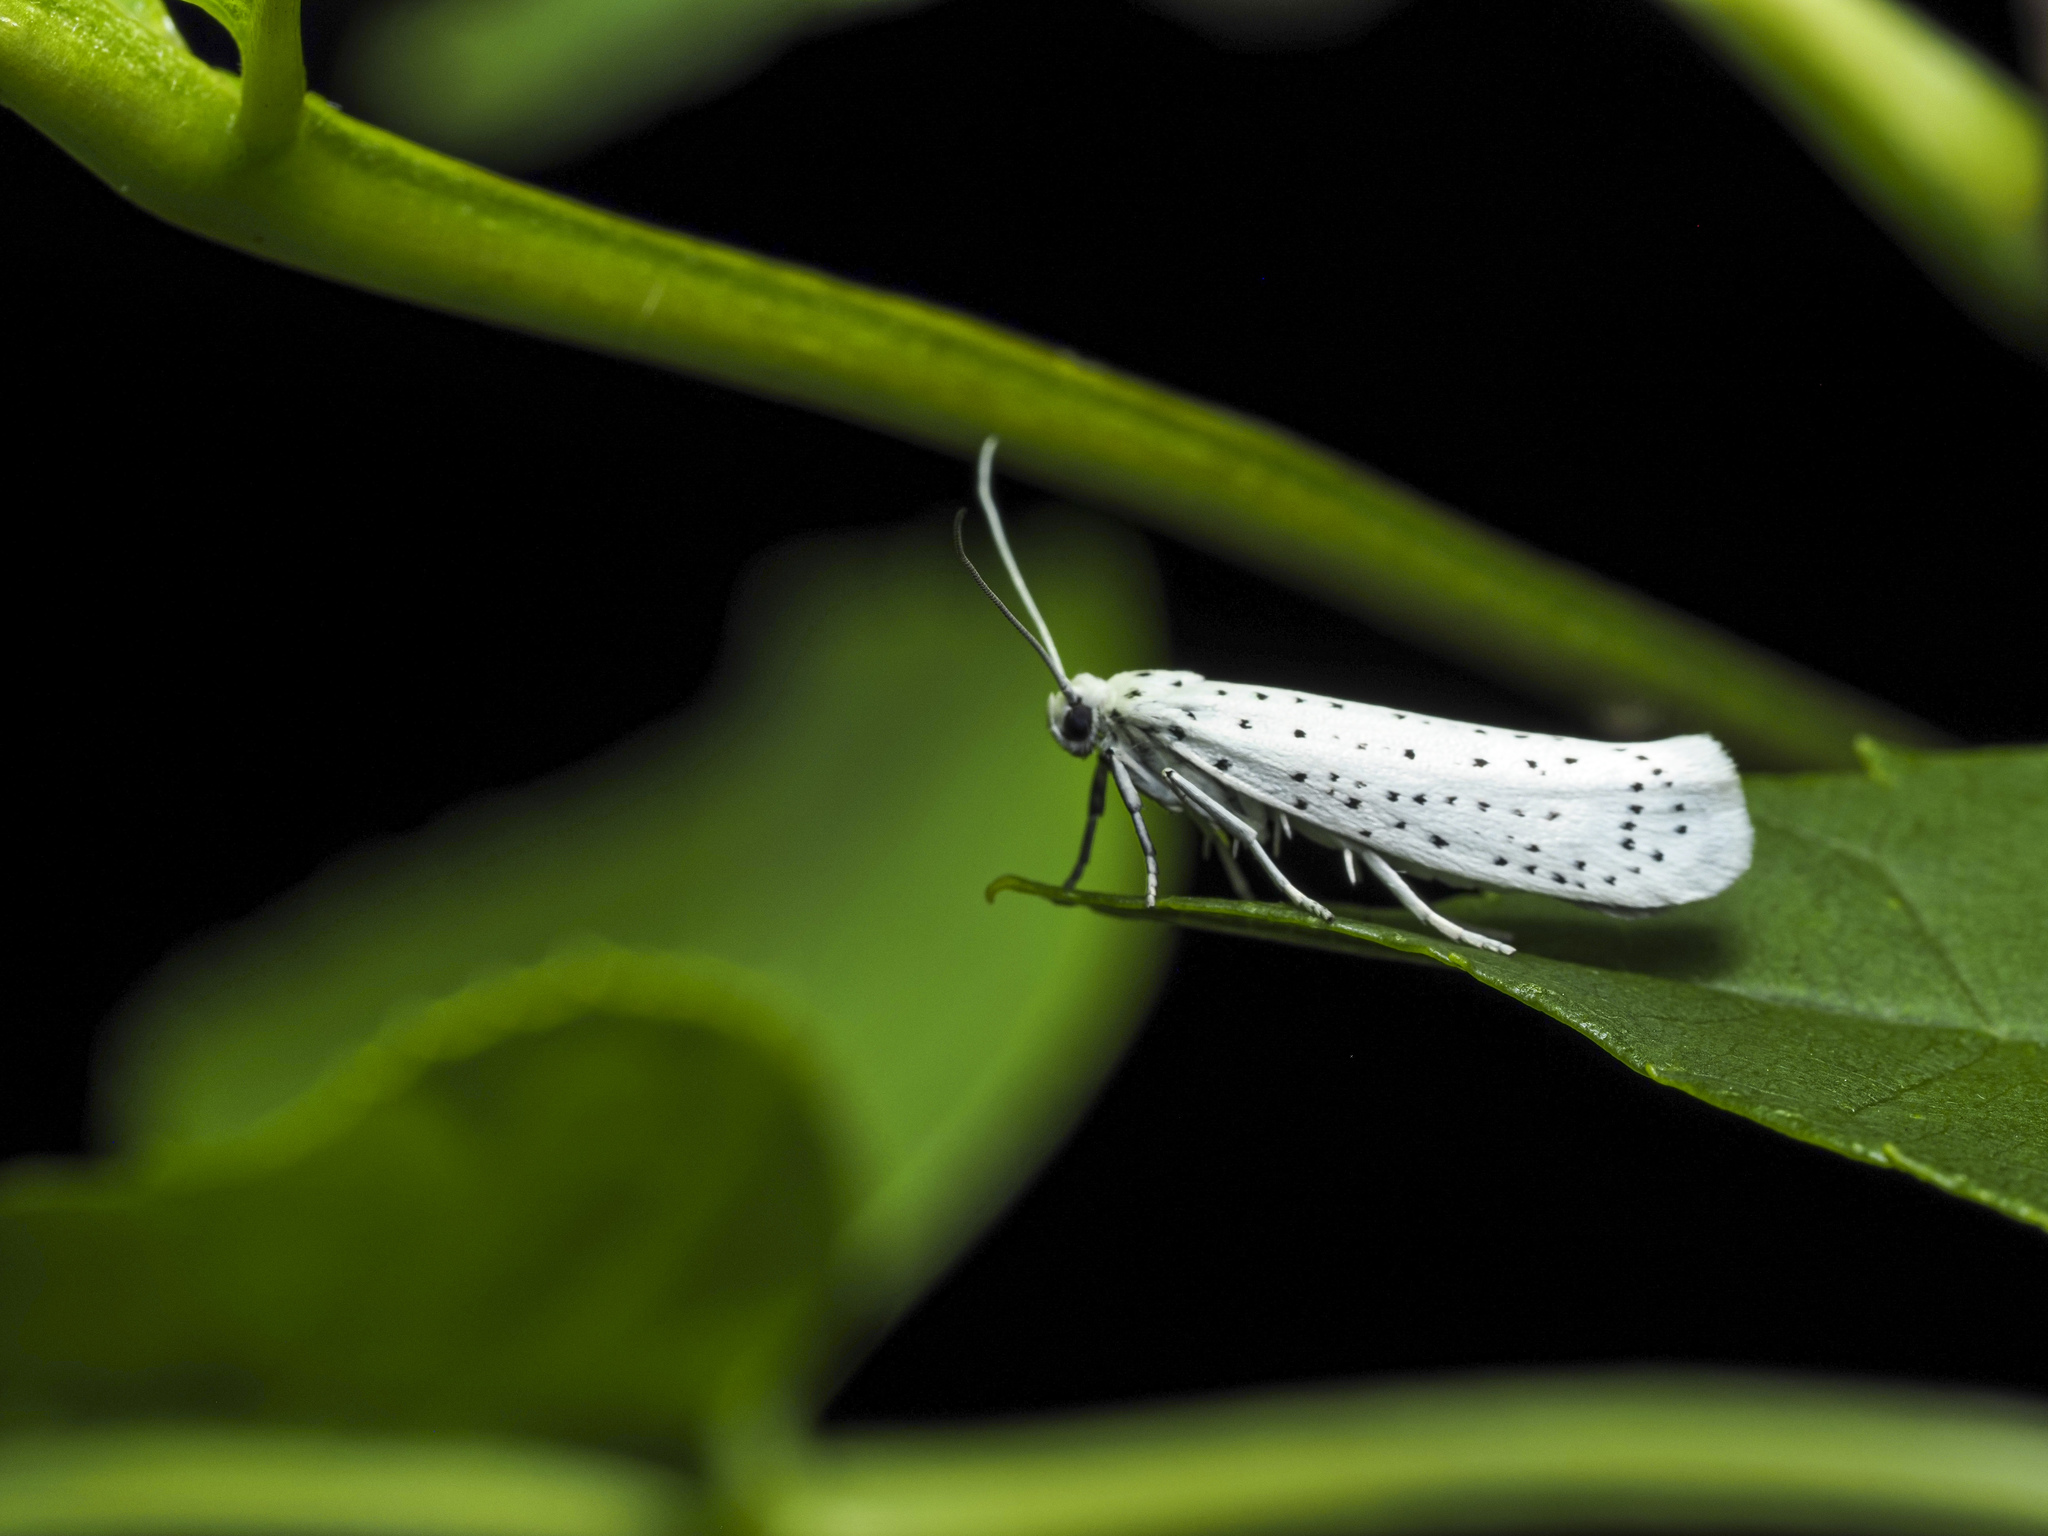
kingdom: Animalia
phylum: Arthropoda
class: Insecta
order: Lepidoptera
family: Yponomeutidae
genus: Yponomeuta
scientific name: Yponomeuta evonymella
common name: Bird-cherry ermine
